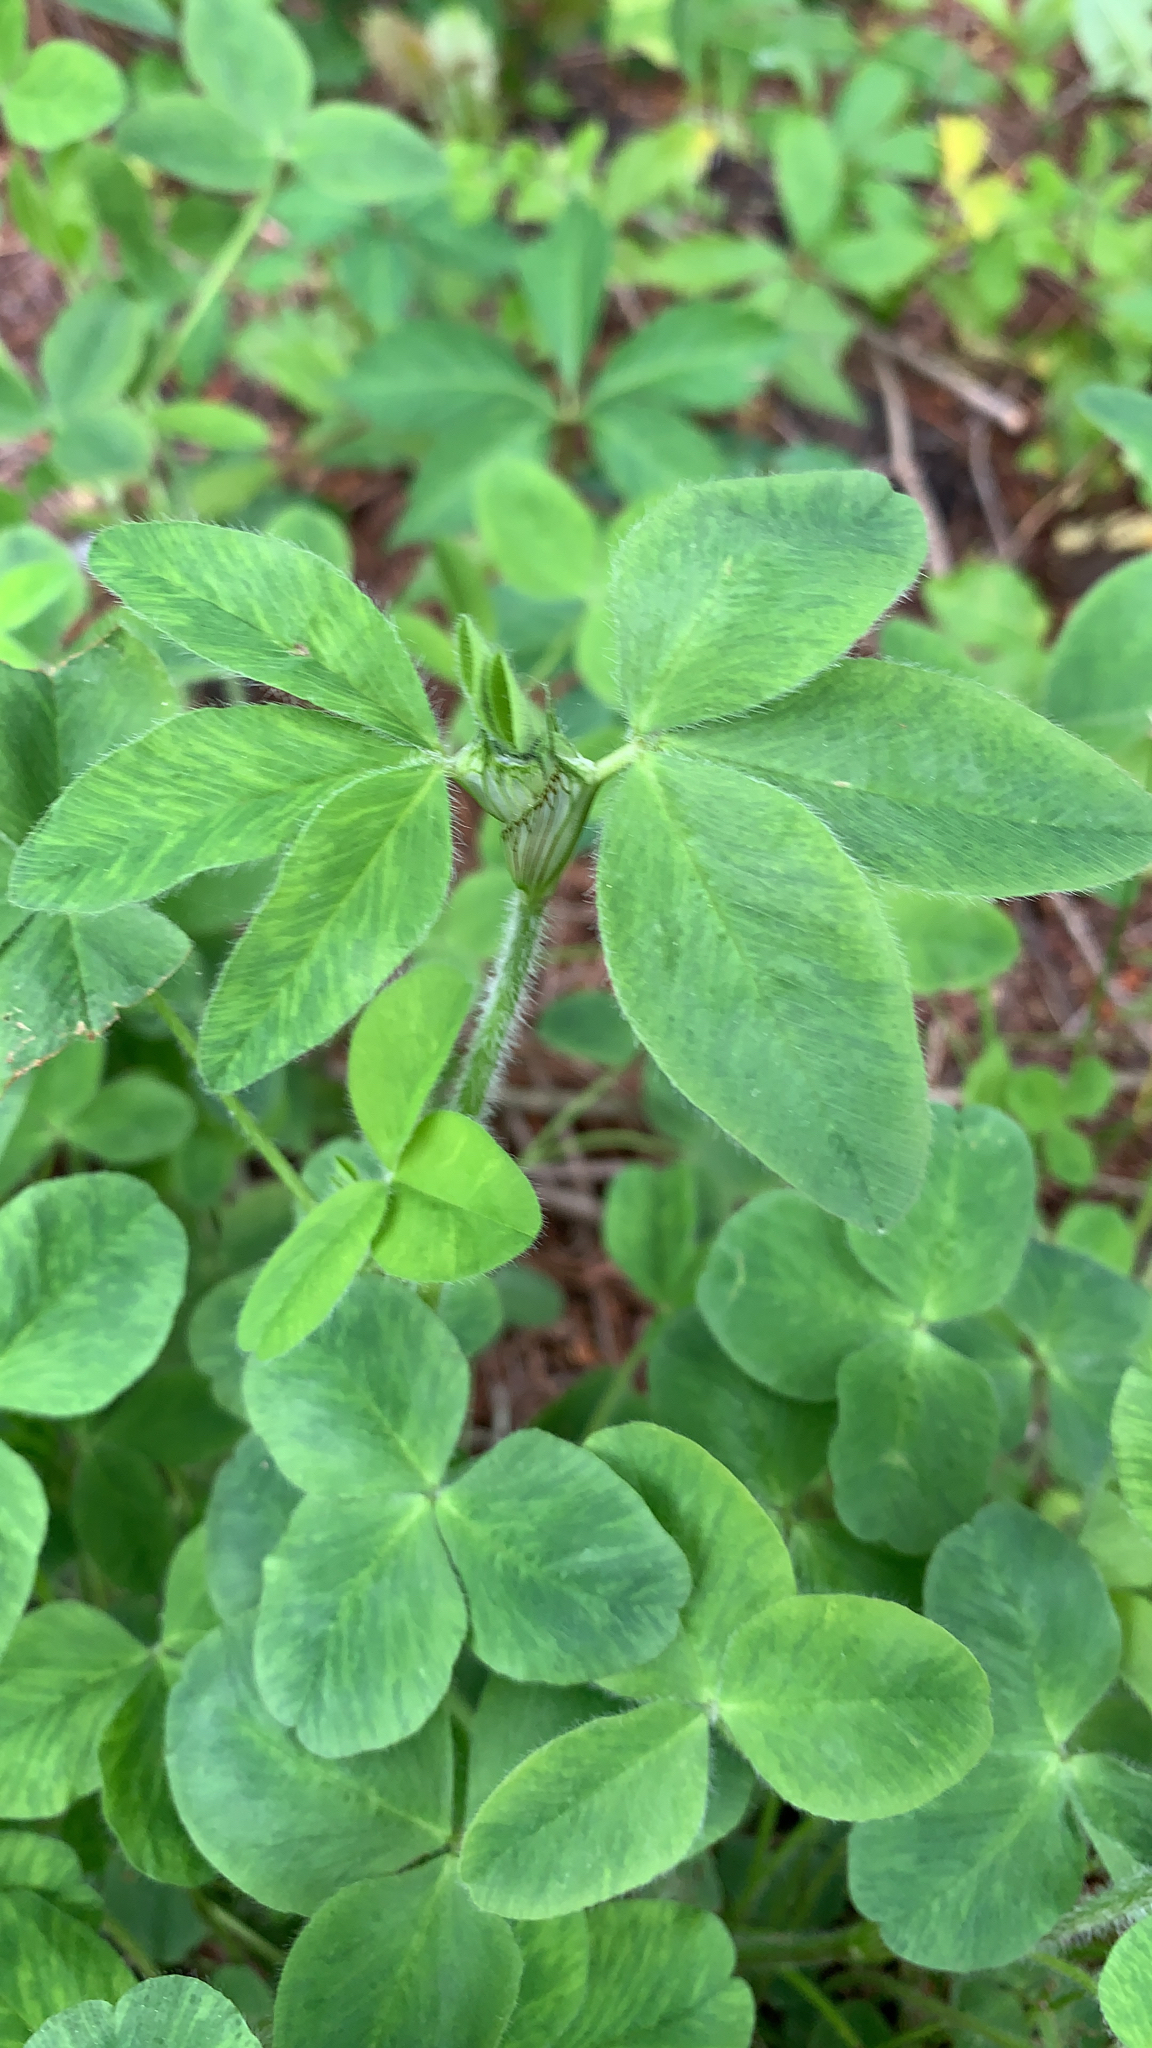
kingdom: Plantae
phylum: Tracheophyta
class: Magnoliopsida
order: Fabales
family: Fabaceae
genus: Trifolium
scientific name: Trifolium pratense
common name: Red clover
